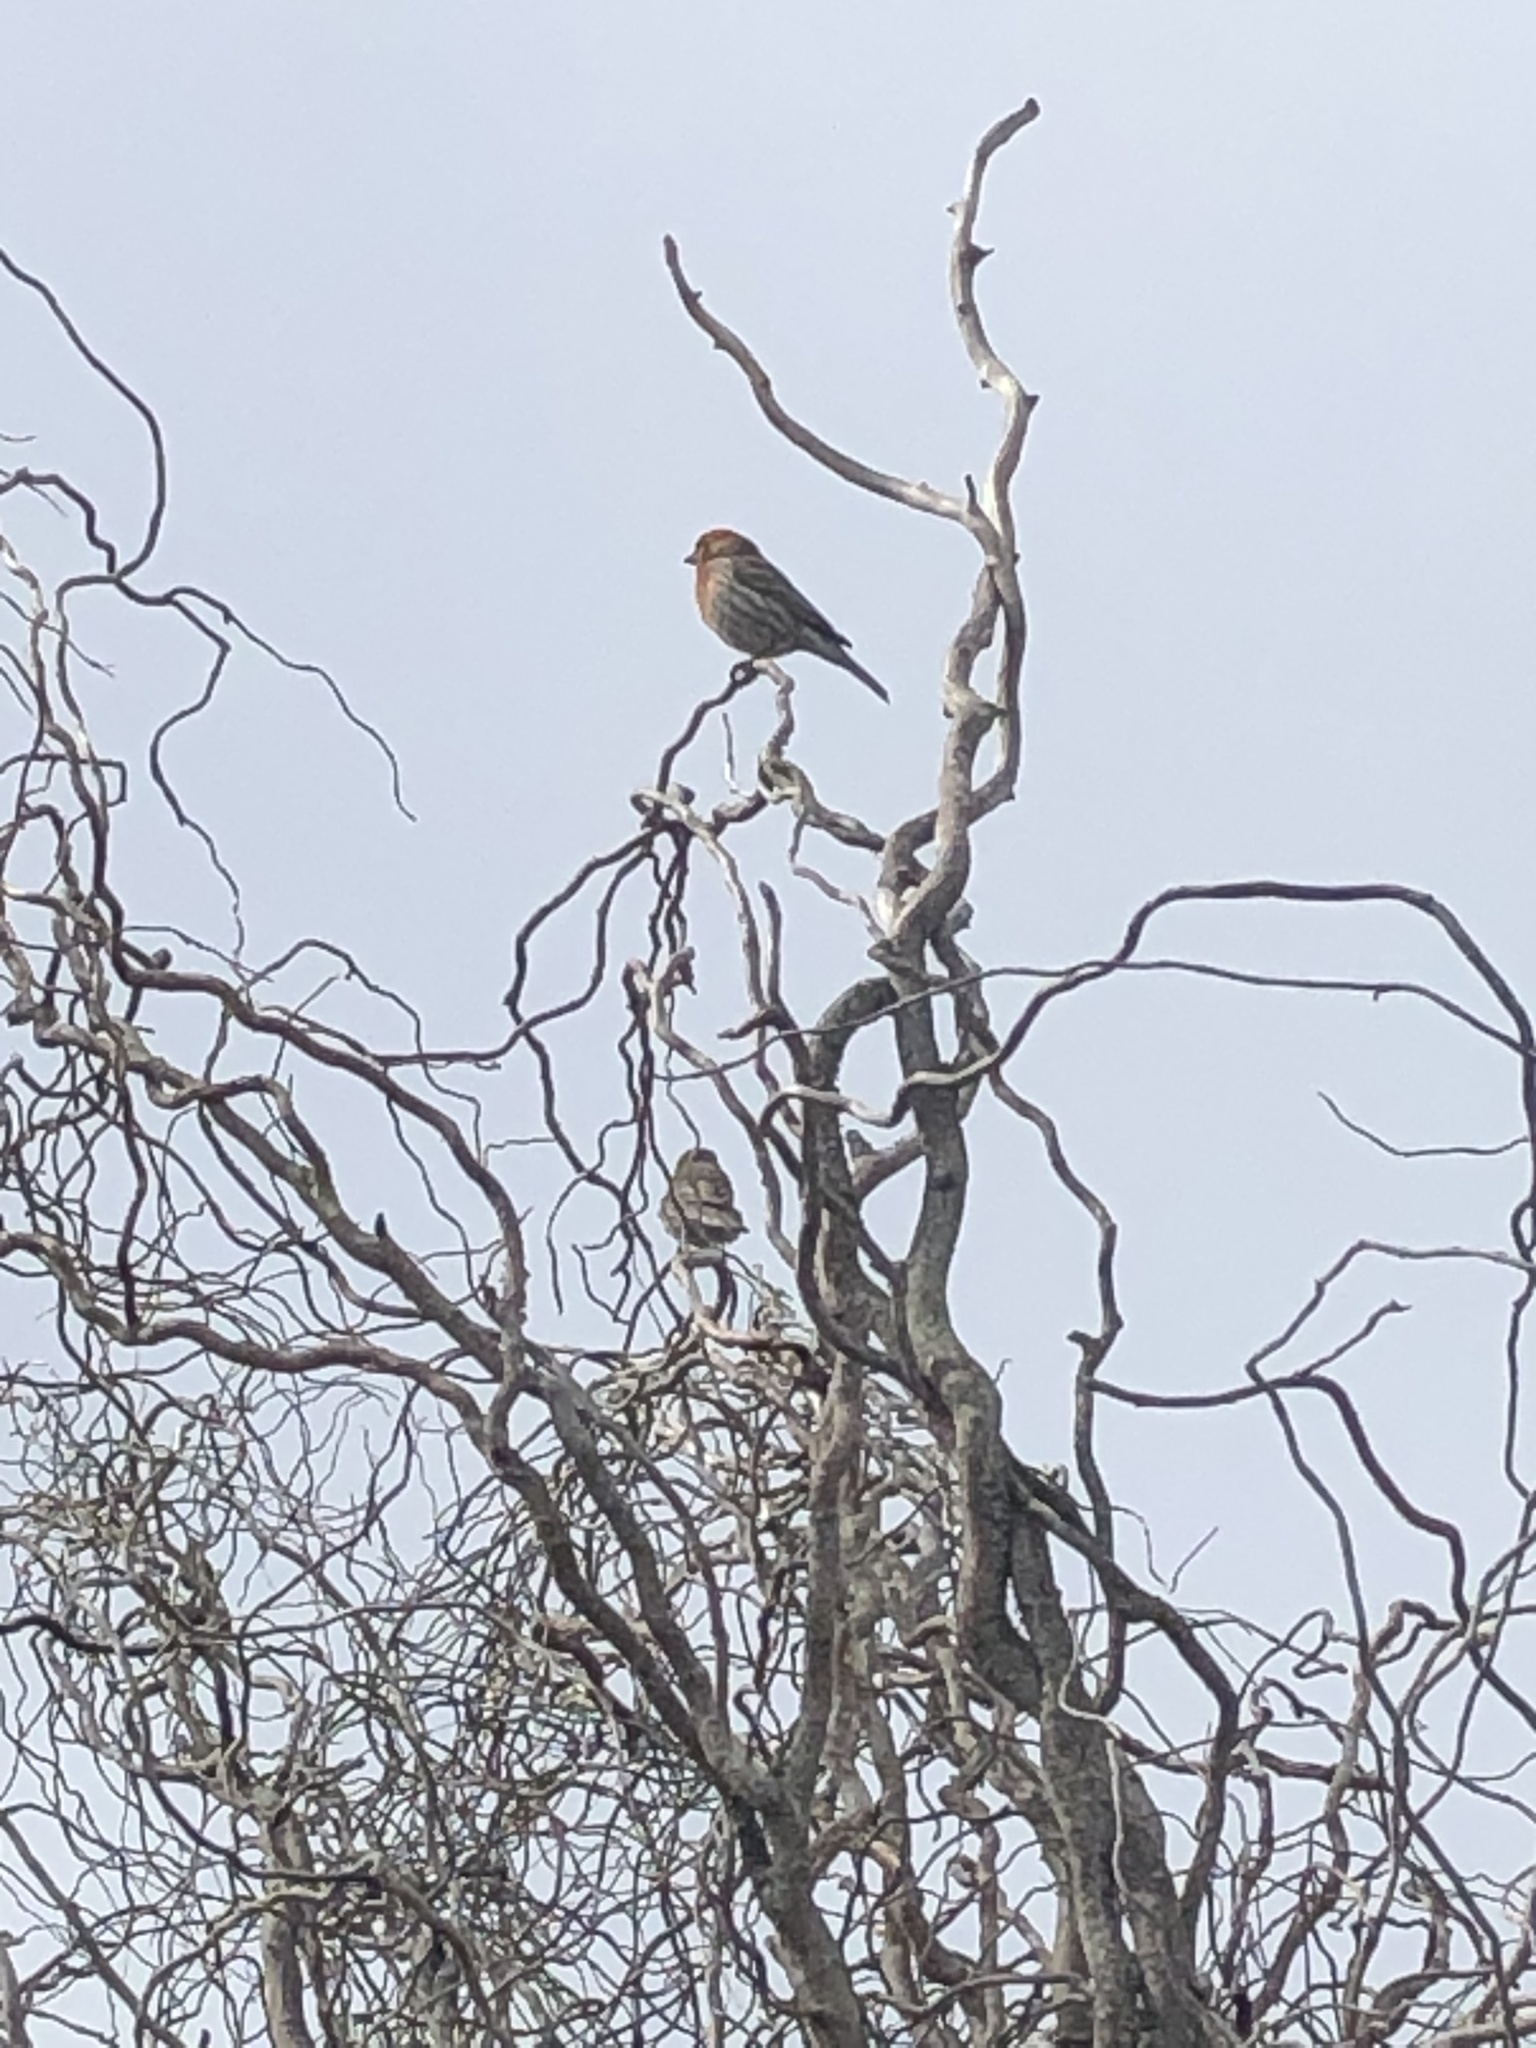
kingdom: Animalia
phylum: Chordata
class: Aves
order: Passeriformes
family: Fringillidae
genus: Haemorhous
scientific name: Haemorhous mexicanus
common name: House finch
